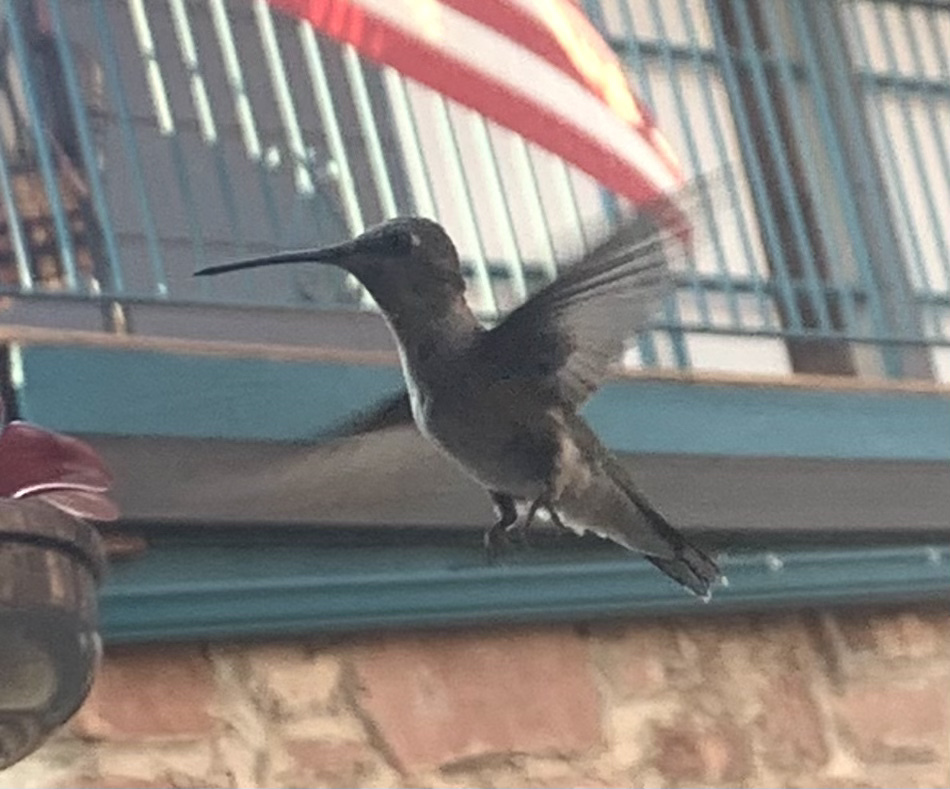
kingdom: Animalia
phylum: Chordata
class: Aves
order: Apodiformes
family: Trochilidae
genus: Archilochus
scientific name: Archilochus alexandri
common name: Black-chinned hummingbird
